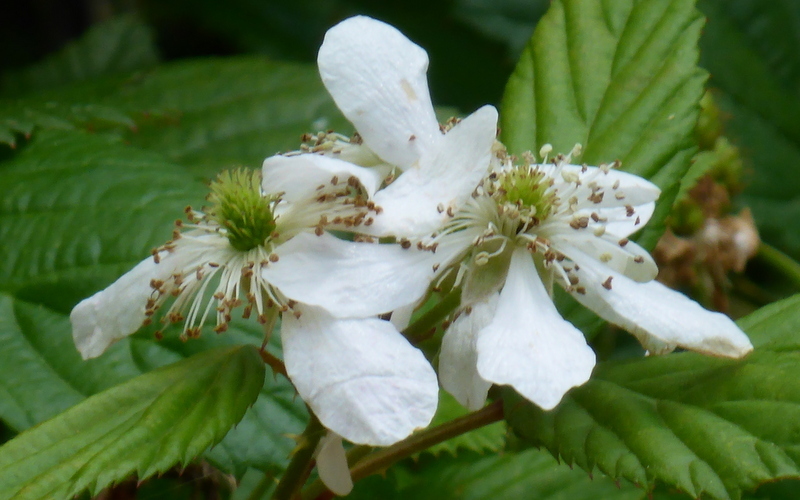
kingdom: Plantae
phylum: Tracheophyta
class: Magnoliopsida
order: Rosales
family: Rosaceae
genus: Rubus
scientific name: Rubus pensilvanicus
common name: Pennsylvania blackberry
